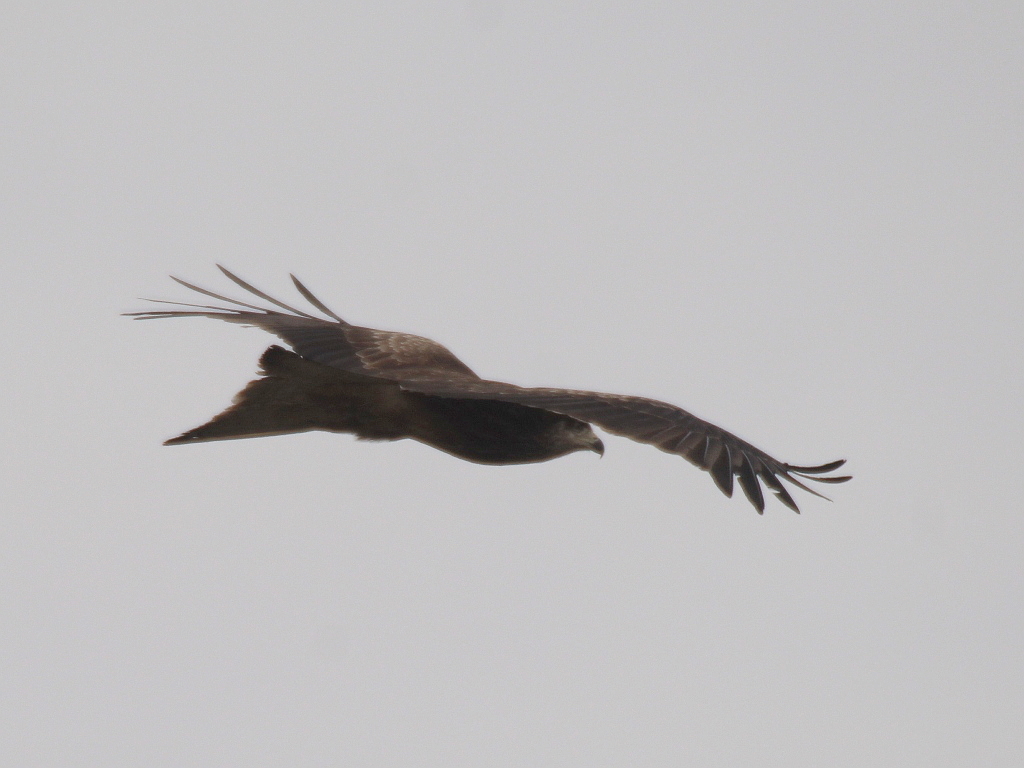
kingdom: Animalia
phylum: Chordata
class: Aves
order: Accipitriformes
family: Accipitridae
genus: Milvus
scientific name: Milvus migrans
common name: Black kite
